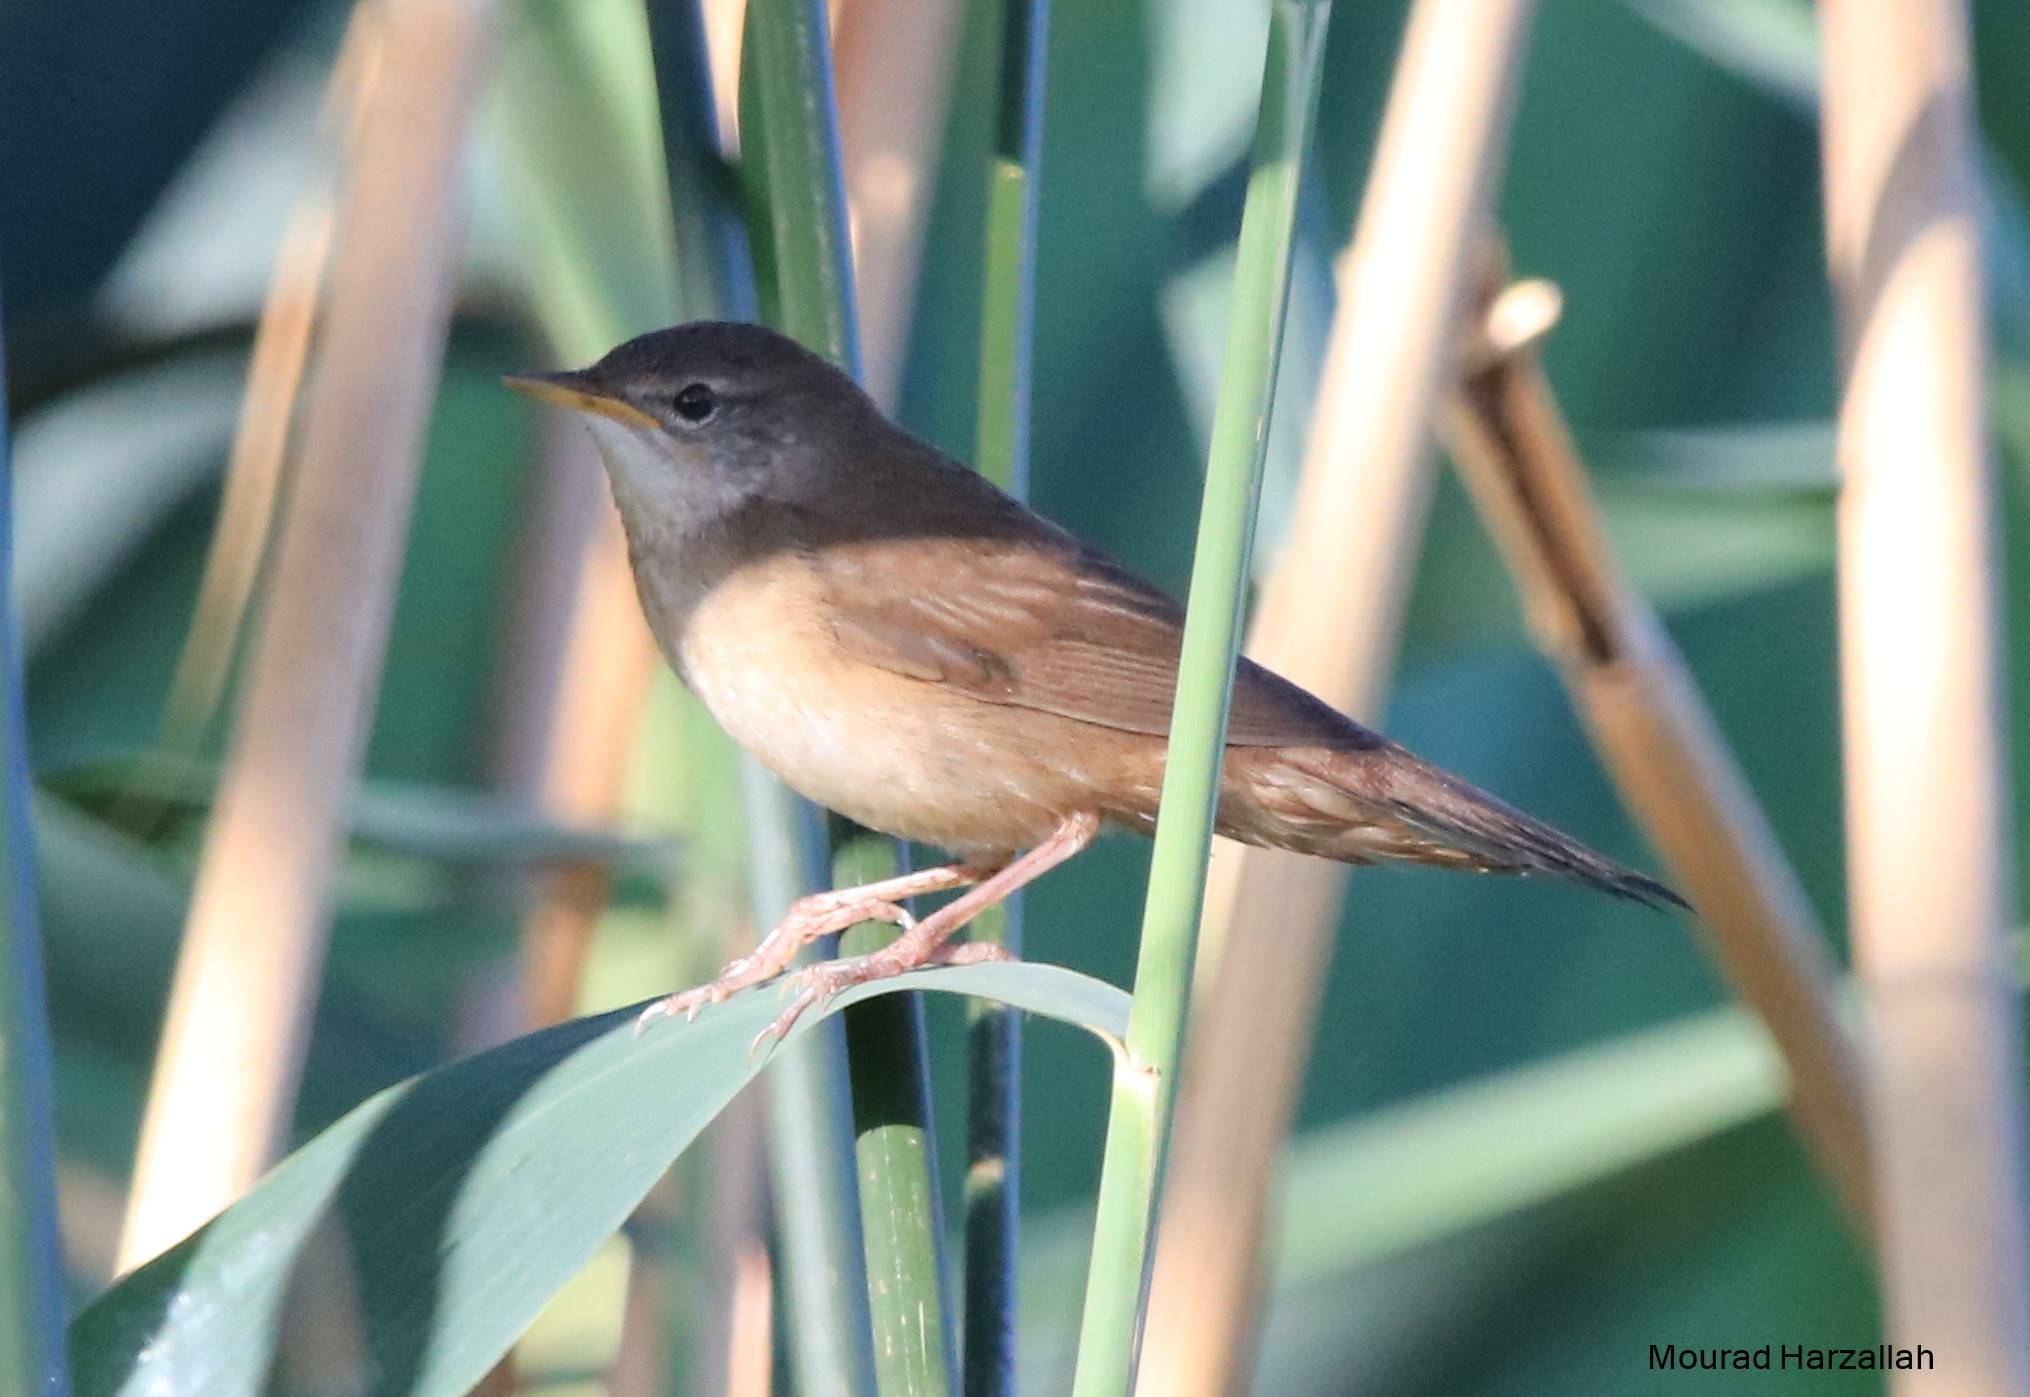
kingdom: Animalia
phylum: Chordata
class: Aves
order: Passeriformes
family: Locustellidae
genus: Locustella
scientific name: Locustella luscinioides
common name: Savi's warbler
